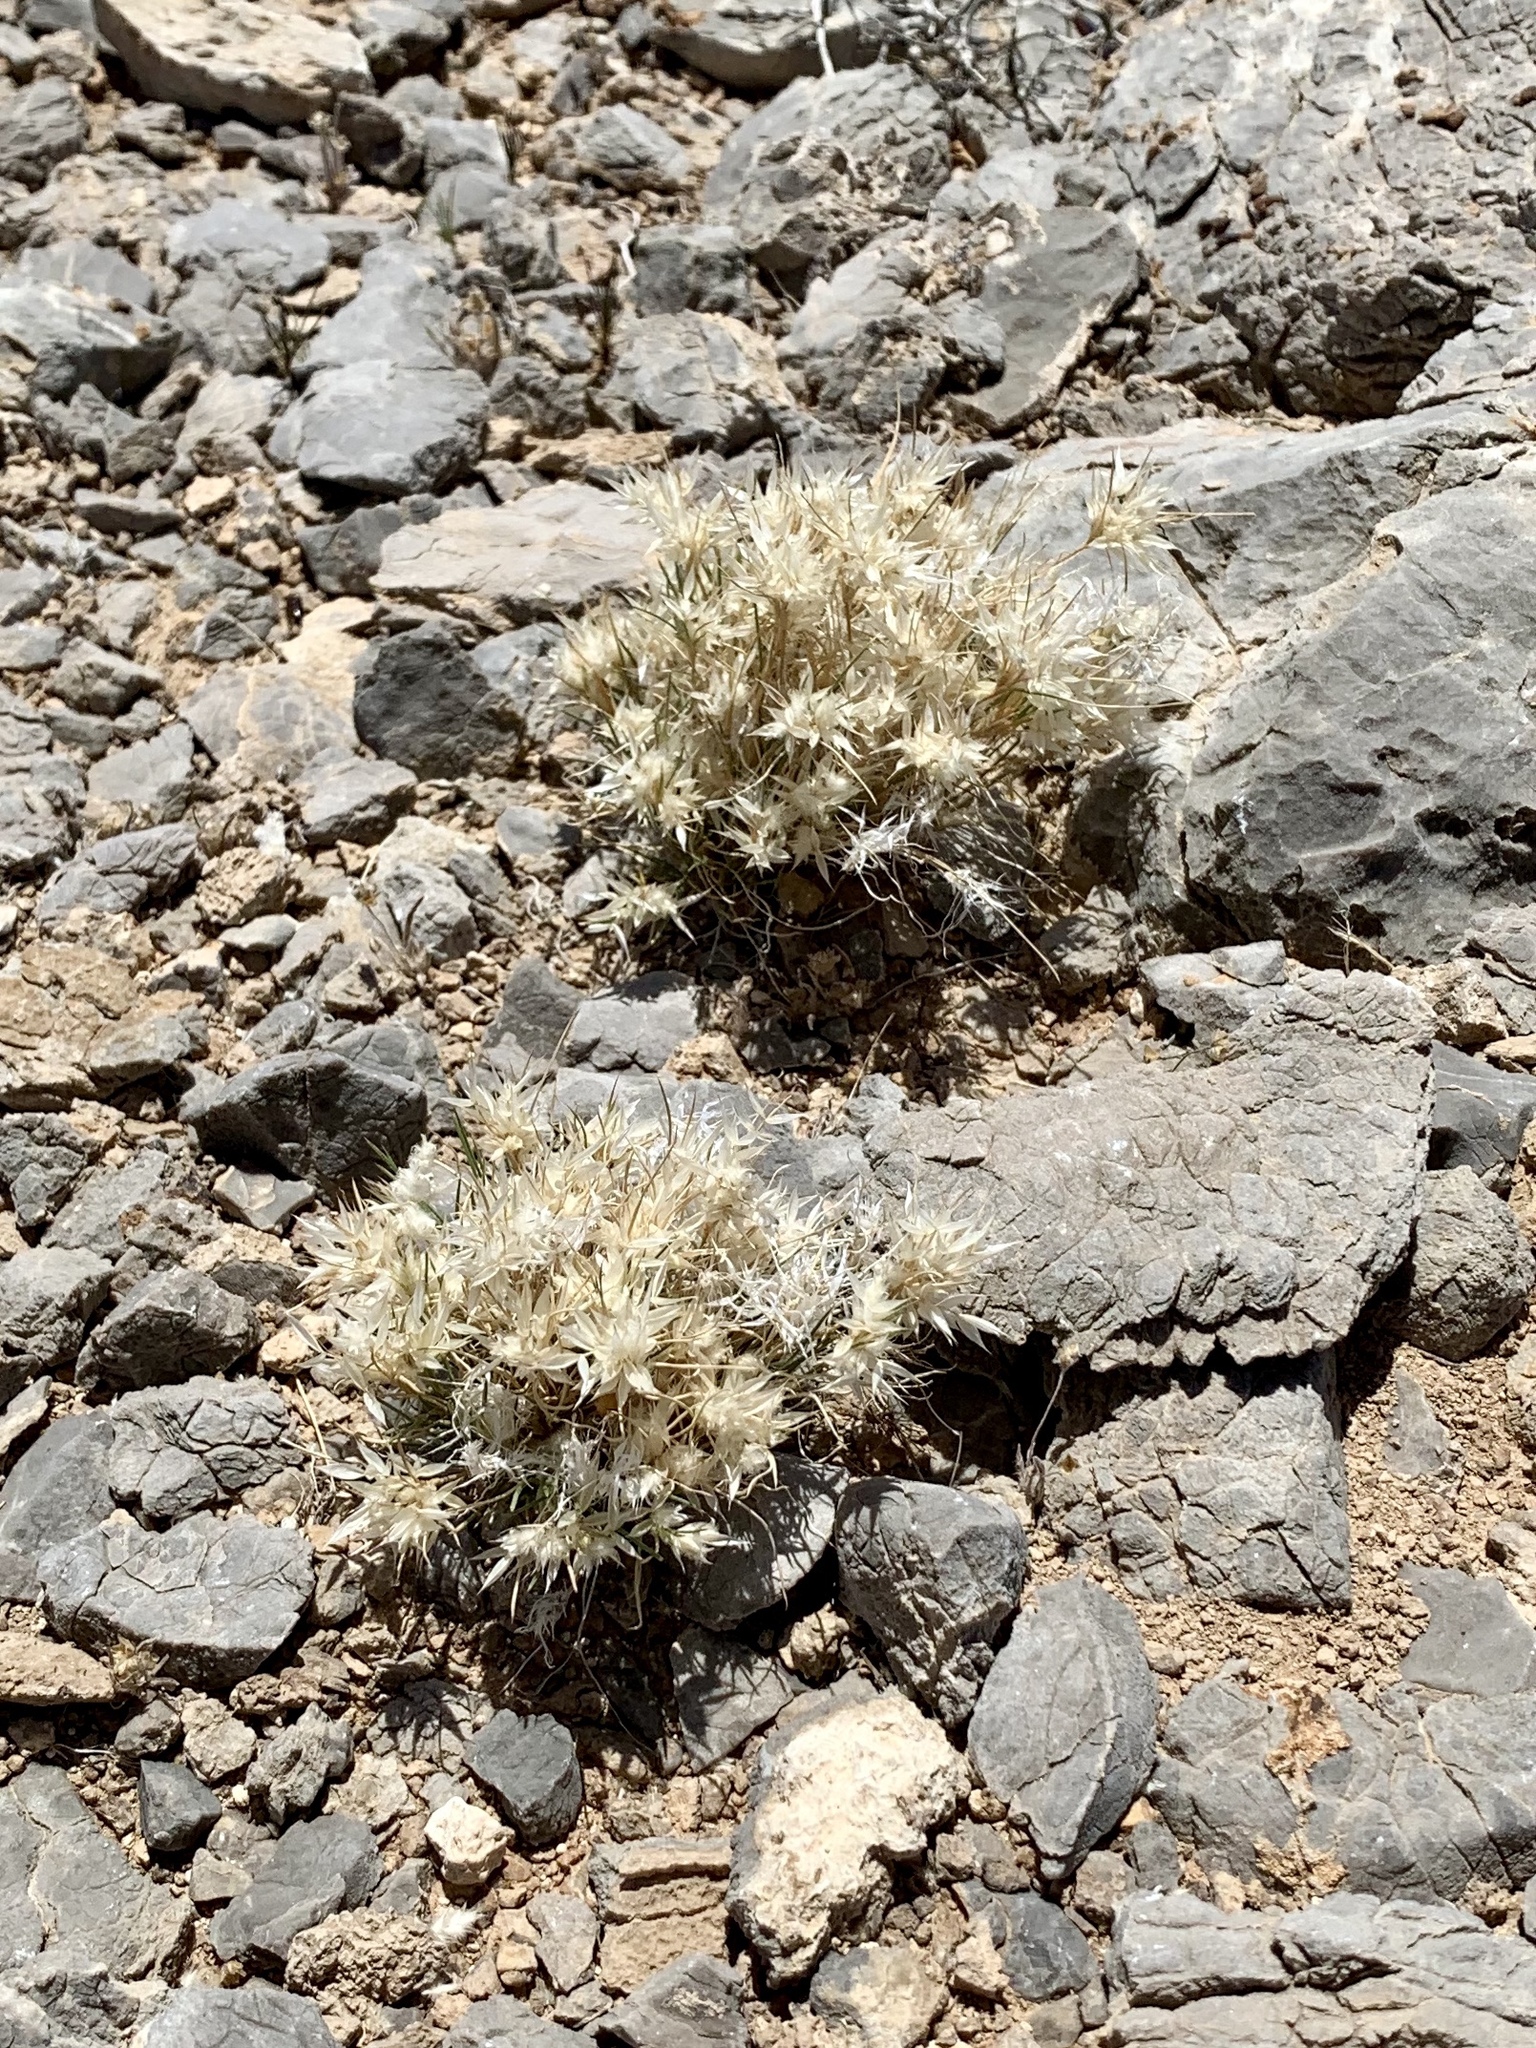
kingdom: Plantae
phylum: Tracheophyta
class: Liliopsida
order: Poales
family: Poaceae
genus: Dasyochloa
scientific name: Dasyochloa pulchella
